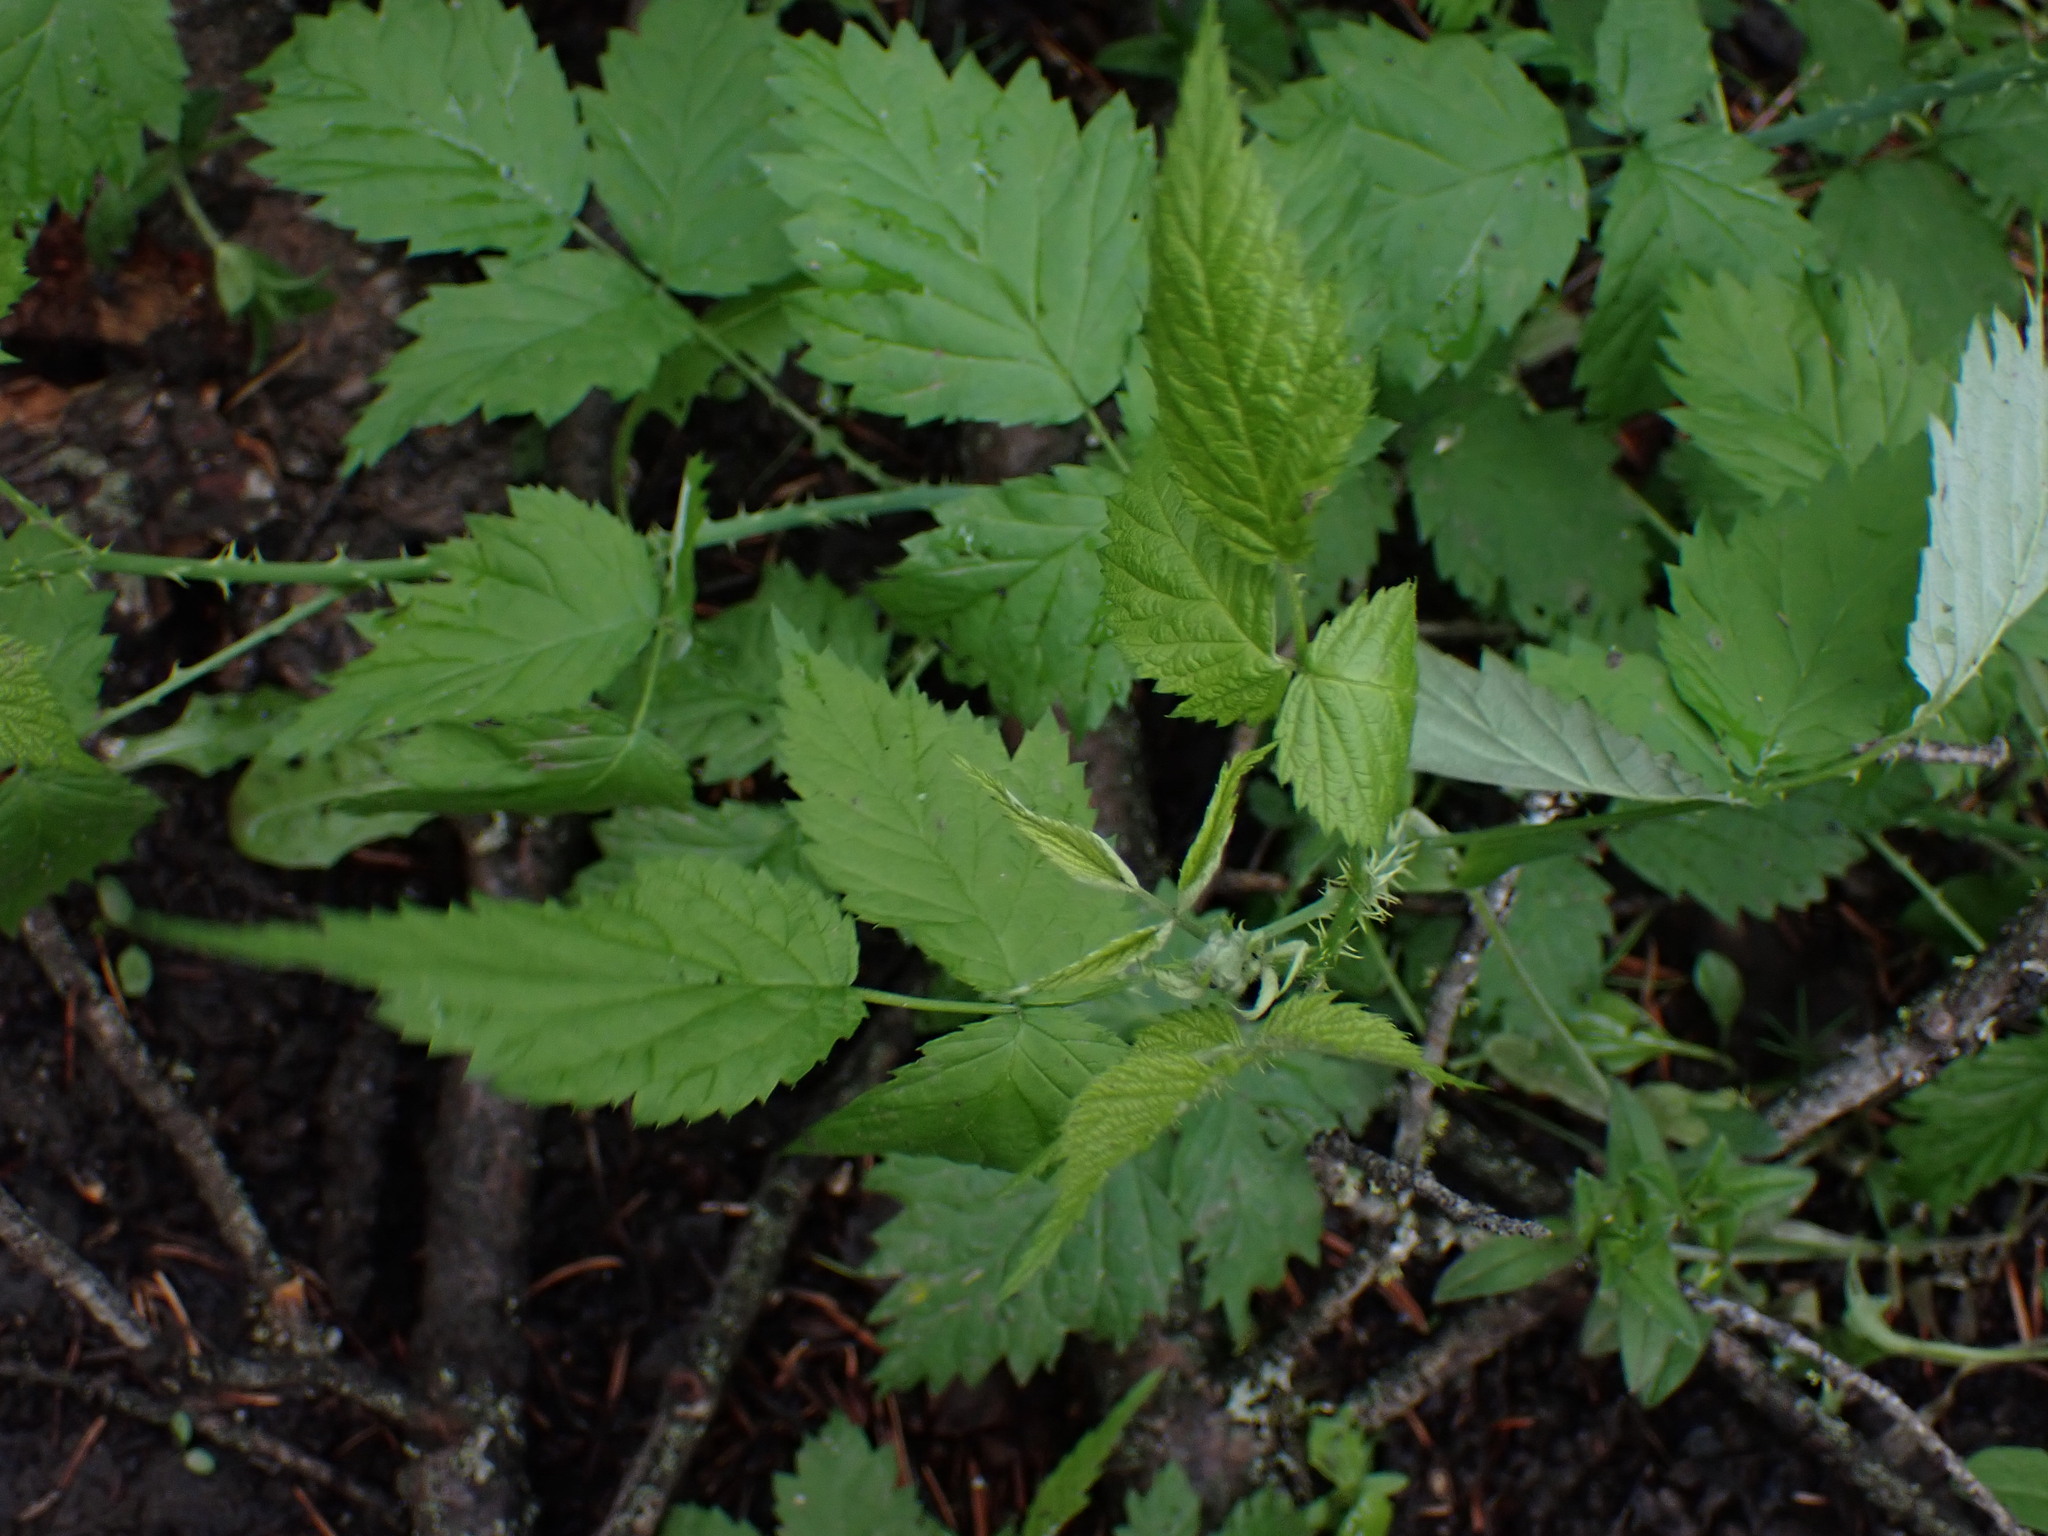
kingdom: Plantae
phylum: Tracheophyta
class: Magnoliopsida
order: Rosales
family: Rosaceae
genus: Rubus
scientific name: Rubus leucodermis
